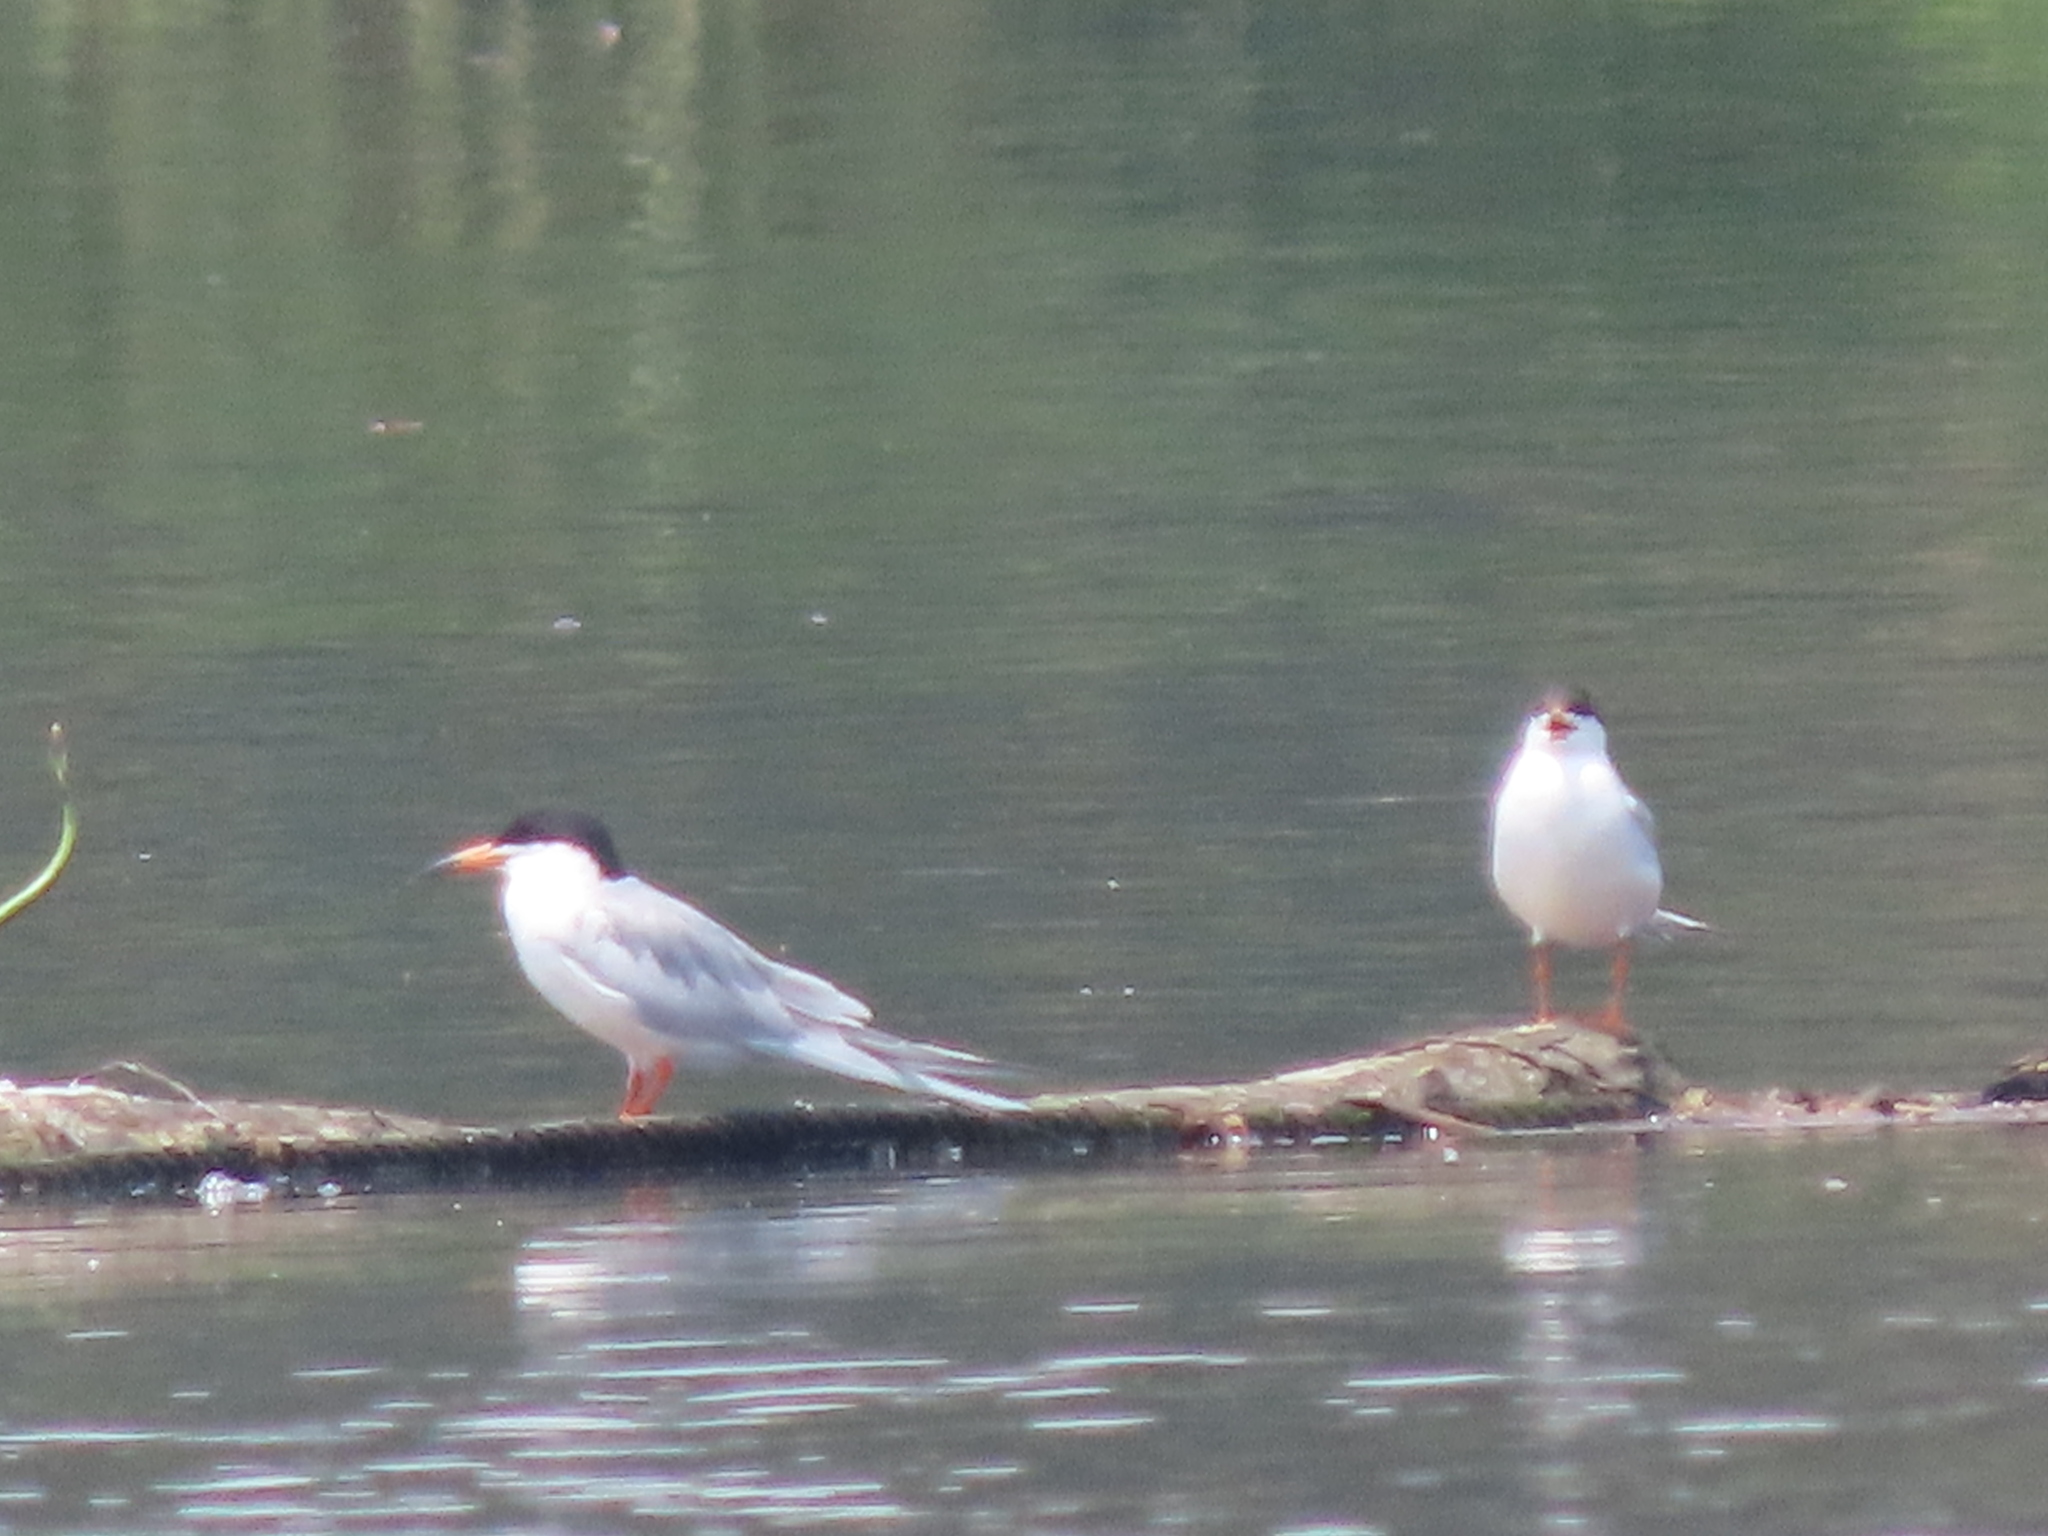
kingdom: Animalia
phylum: Chordata
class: Aves
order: Charadriiformes
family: Laridae
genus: Sterna
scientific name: Sterna forsteri
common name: Forster's tern
